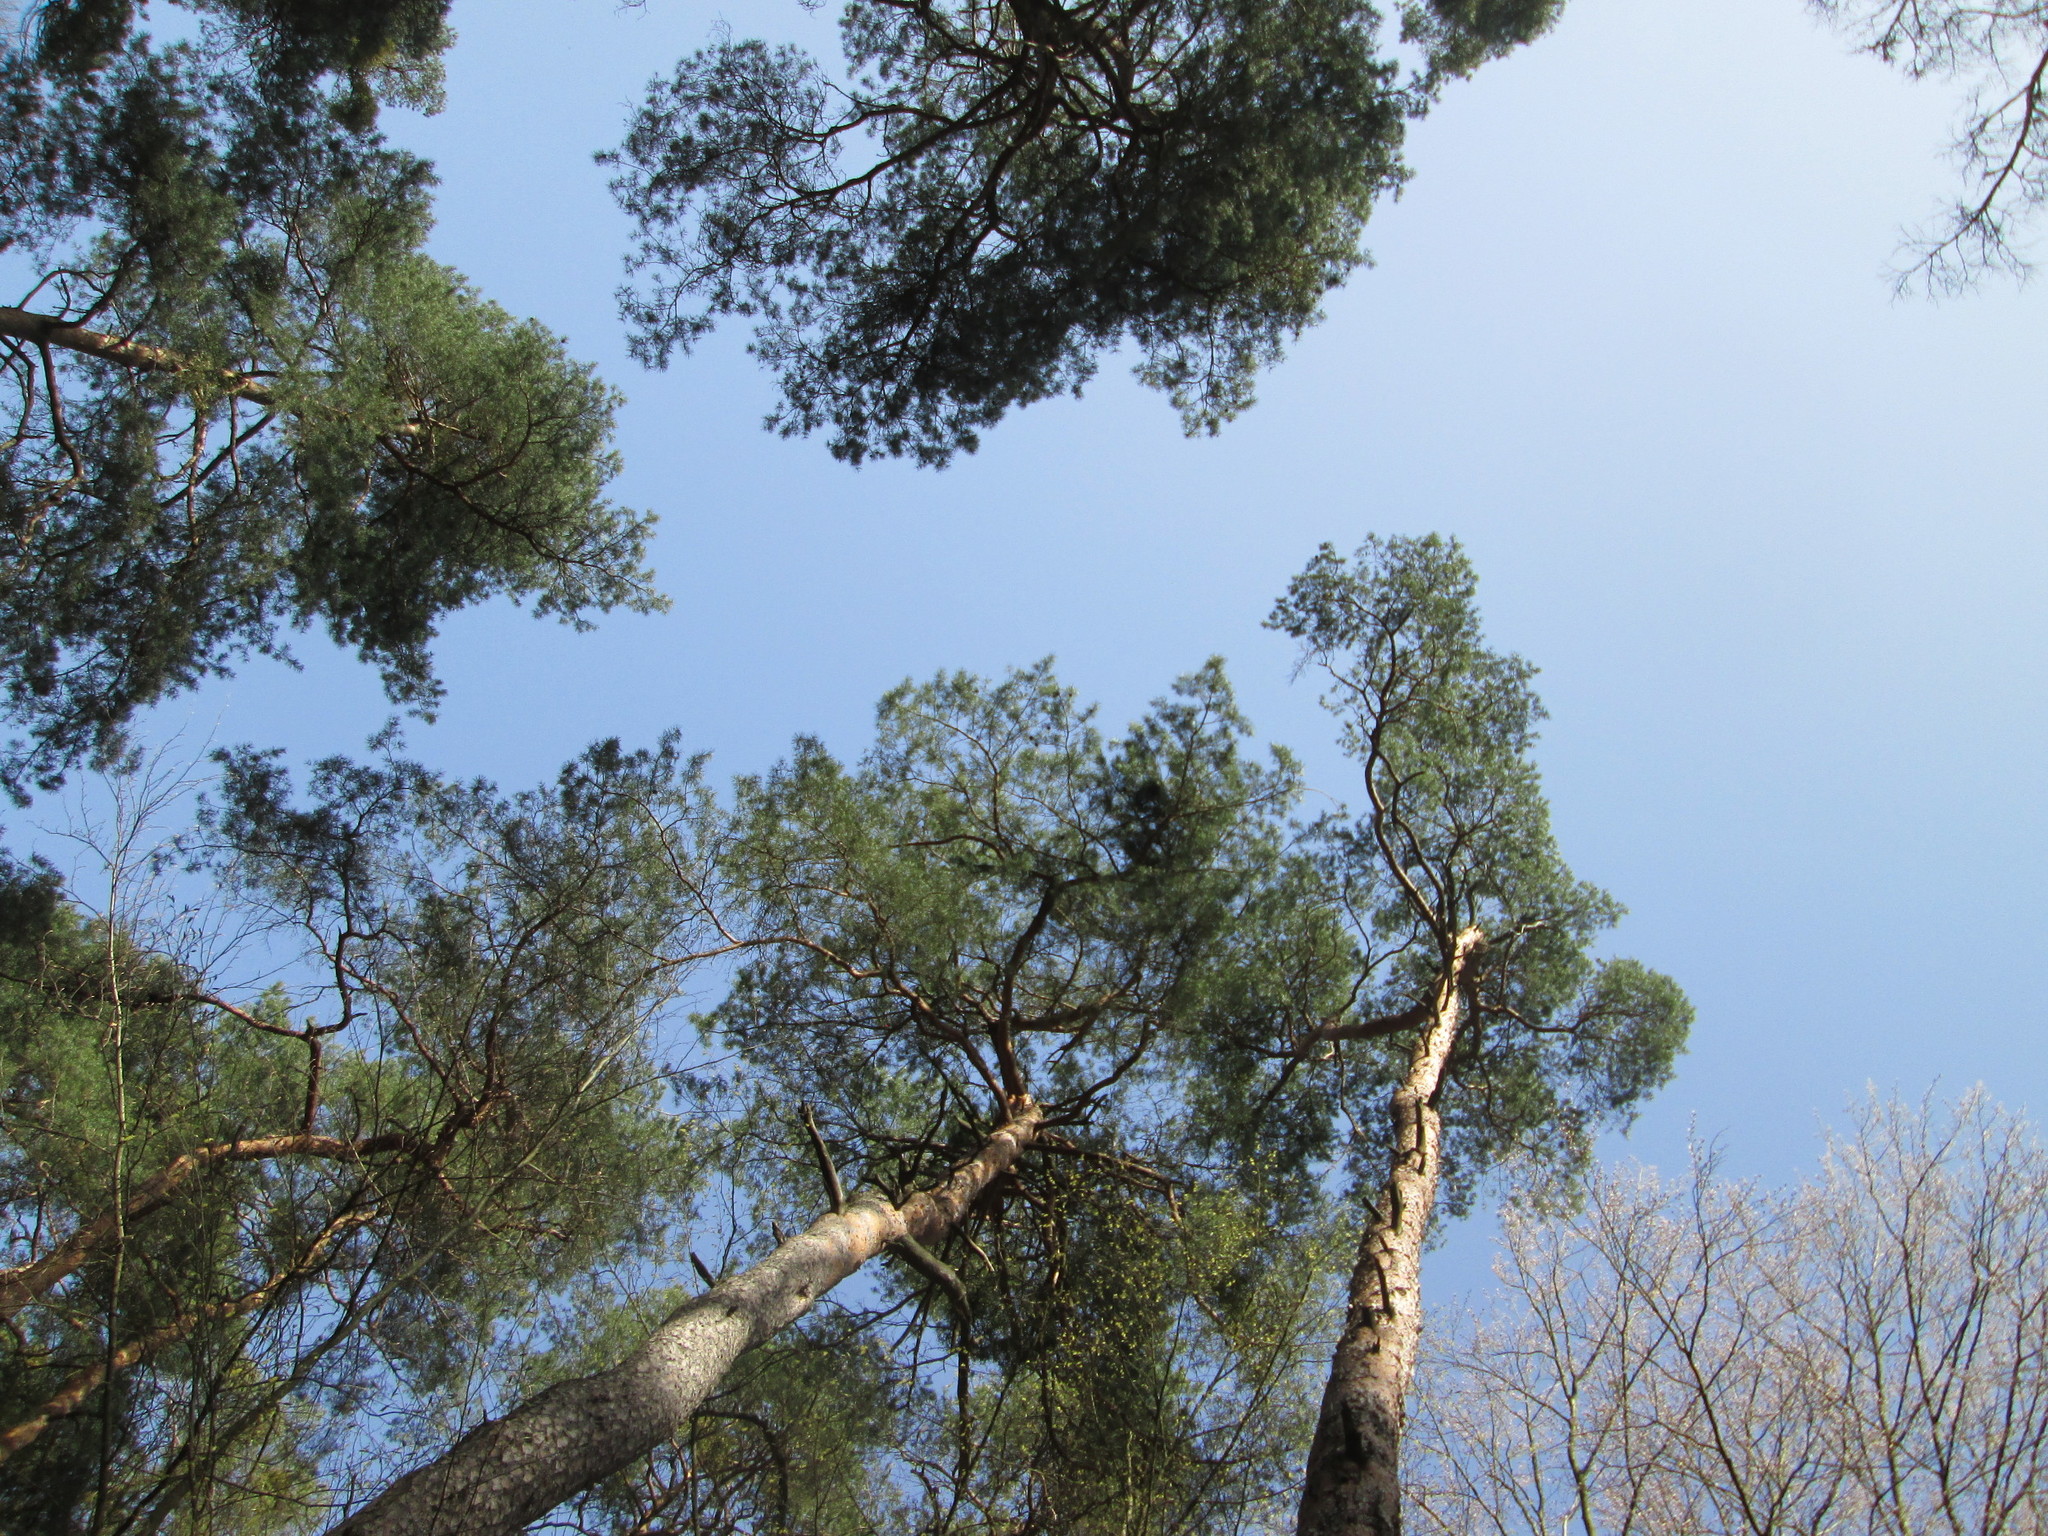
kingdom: Plantae
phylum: Tracheophyta
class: Pinopsida
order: Pinales
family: Pinaceae
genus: Pinus
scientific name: Pinus sylvestris
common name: Scots pine
